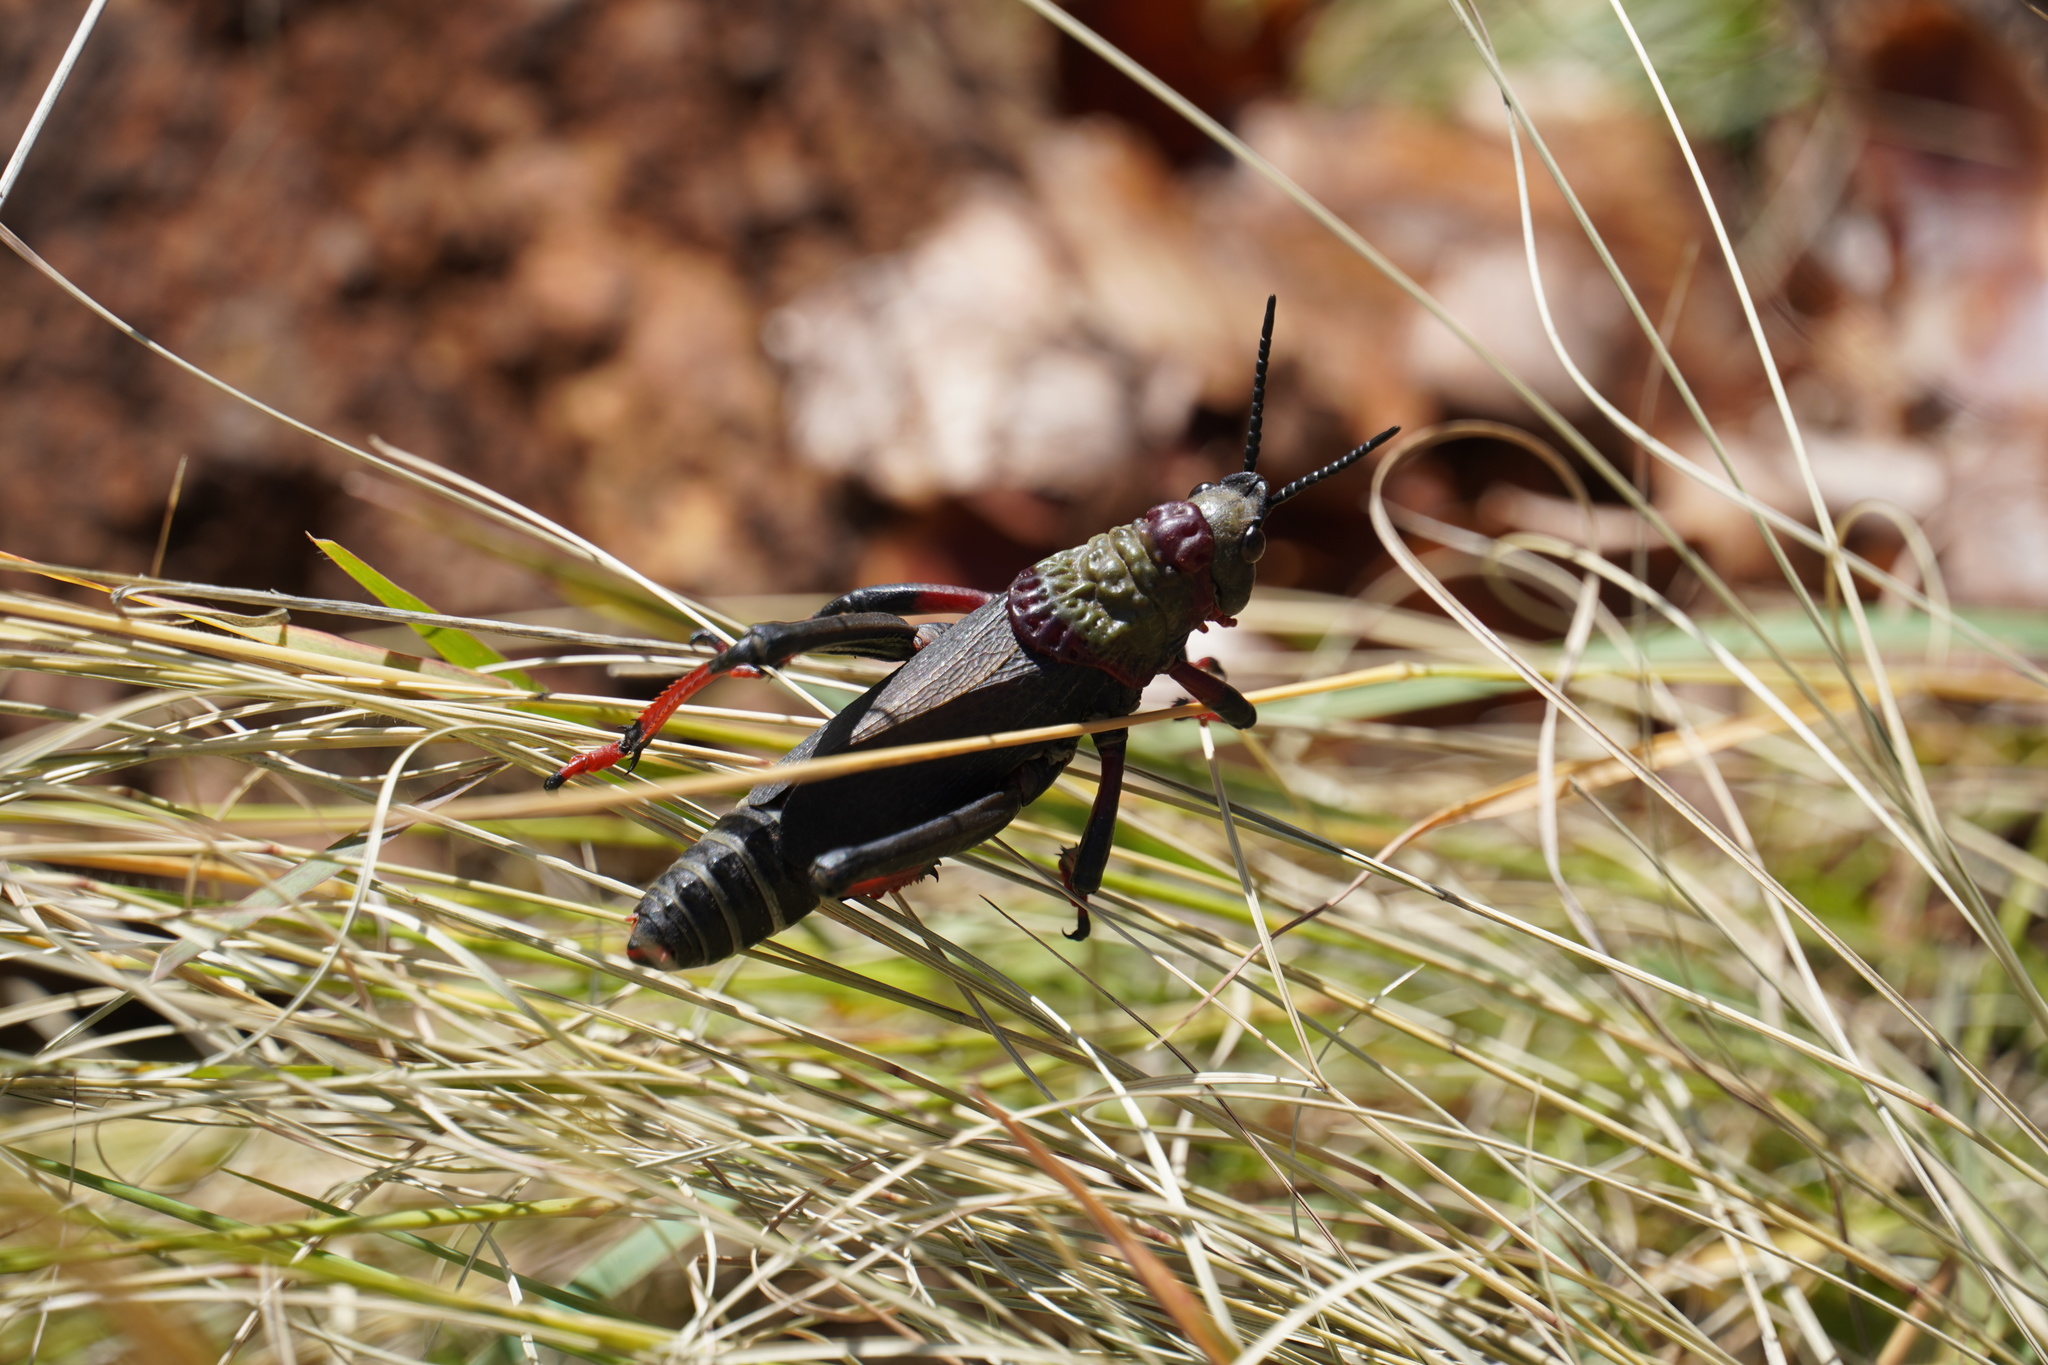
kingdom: Animalia
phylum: Arthropoda
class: Insecta
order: Orthoptera
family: Pyrgomorphidae
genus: Dictyophorus
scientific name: Dictyophorus spumans
